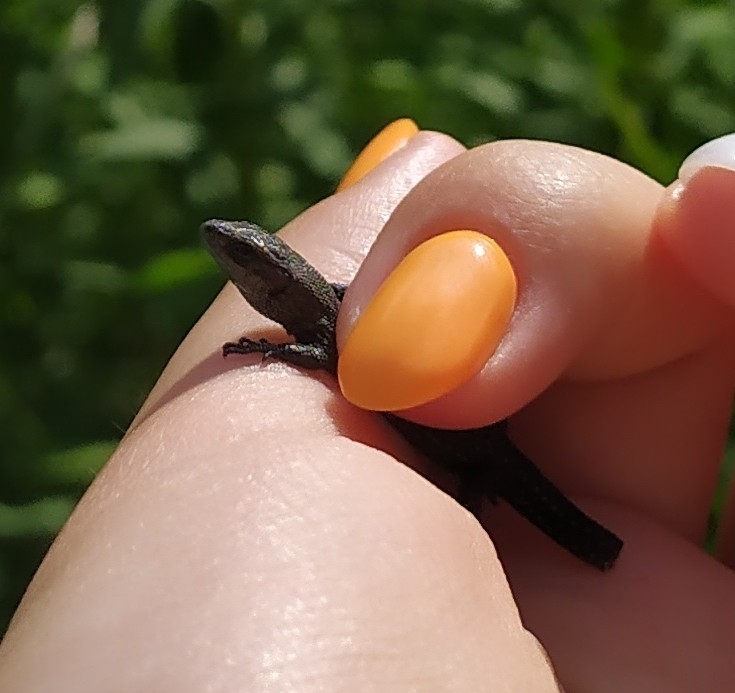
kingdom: Animalia
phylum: Chordata
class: Squamata
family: Lacertidae
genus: Zootoca
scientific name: Zootoca vivipara
